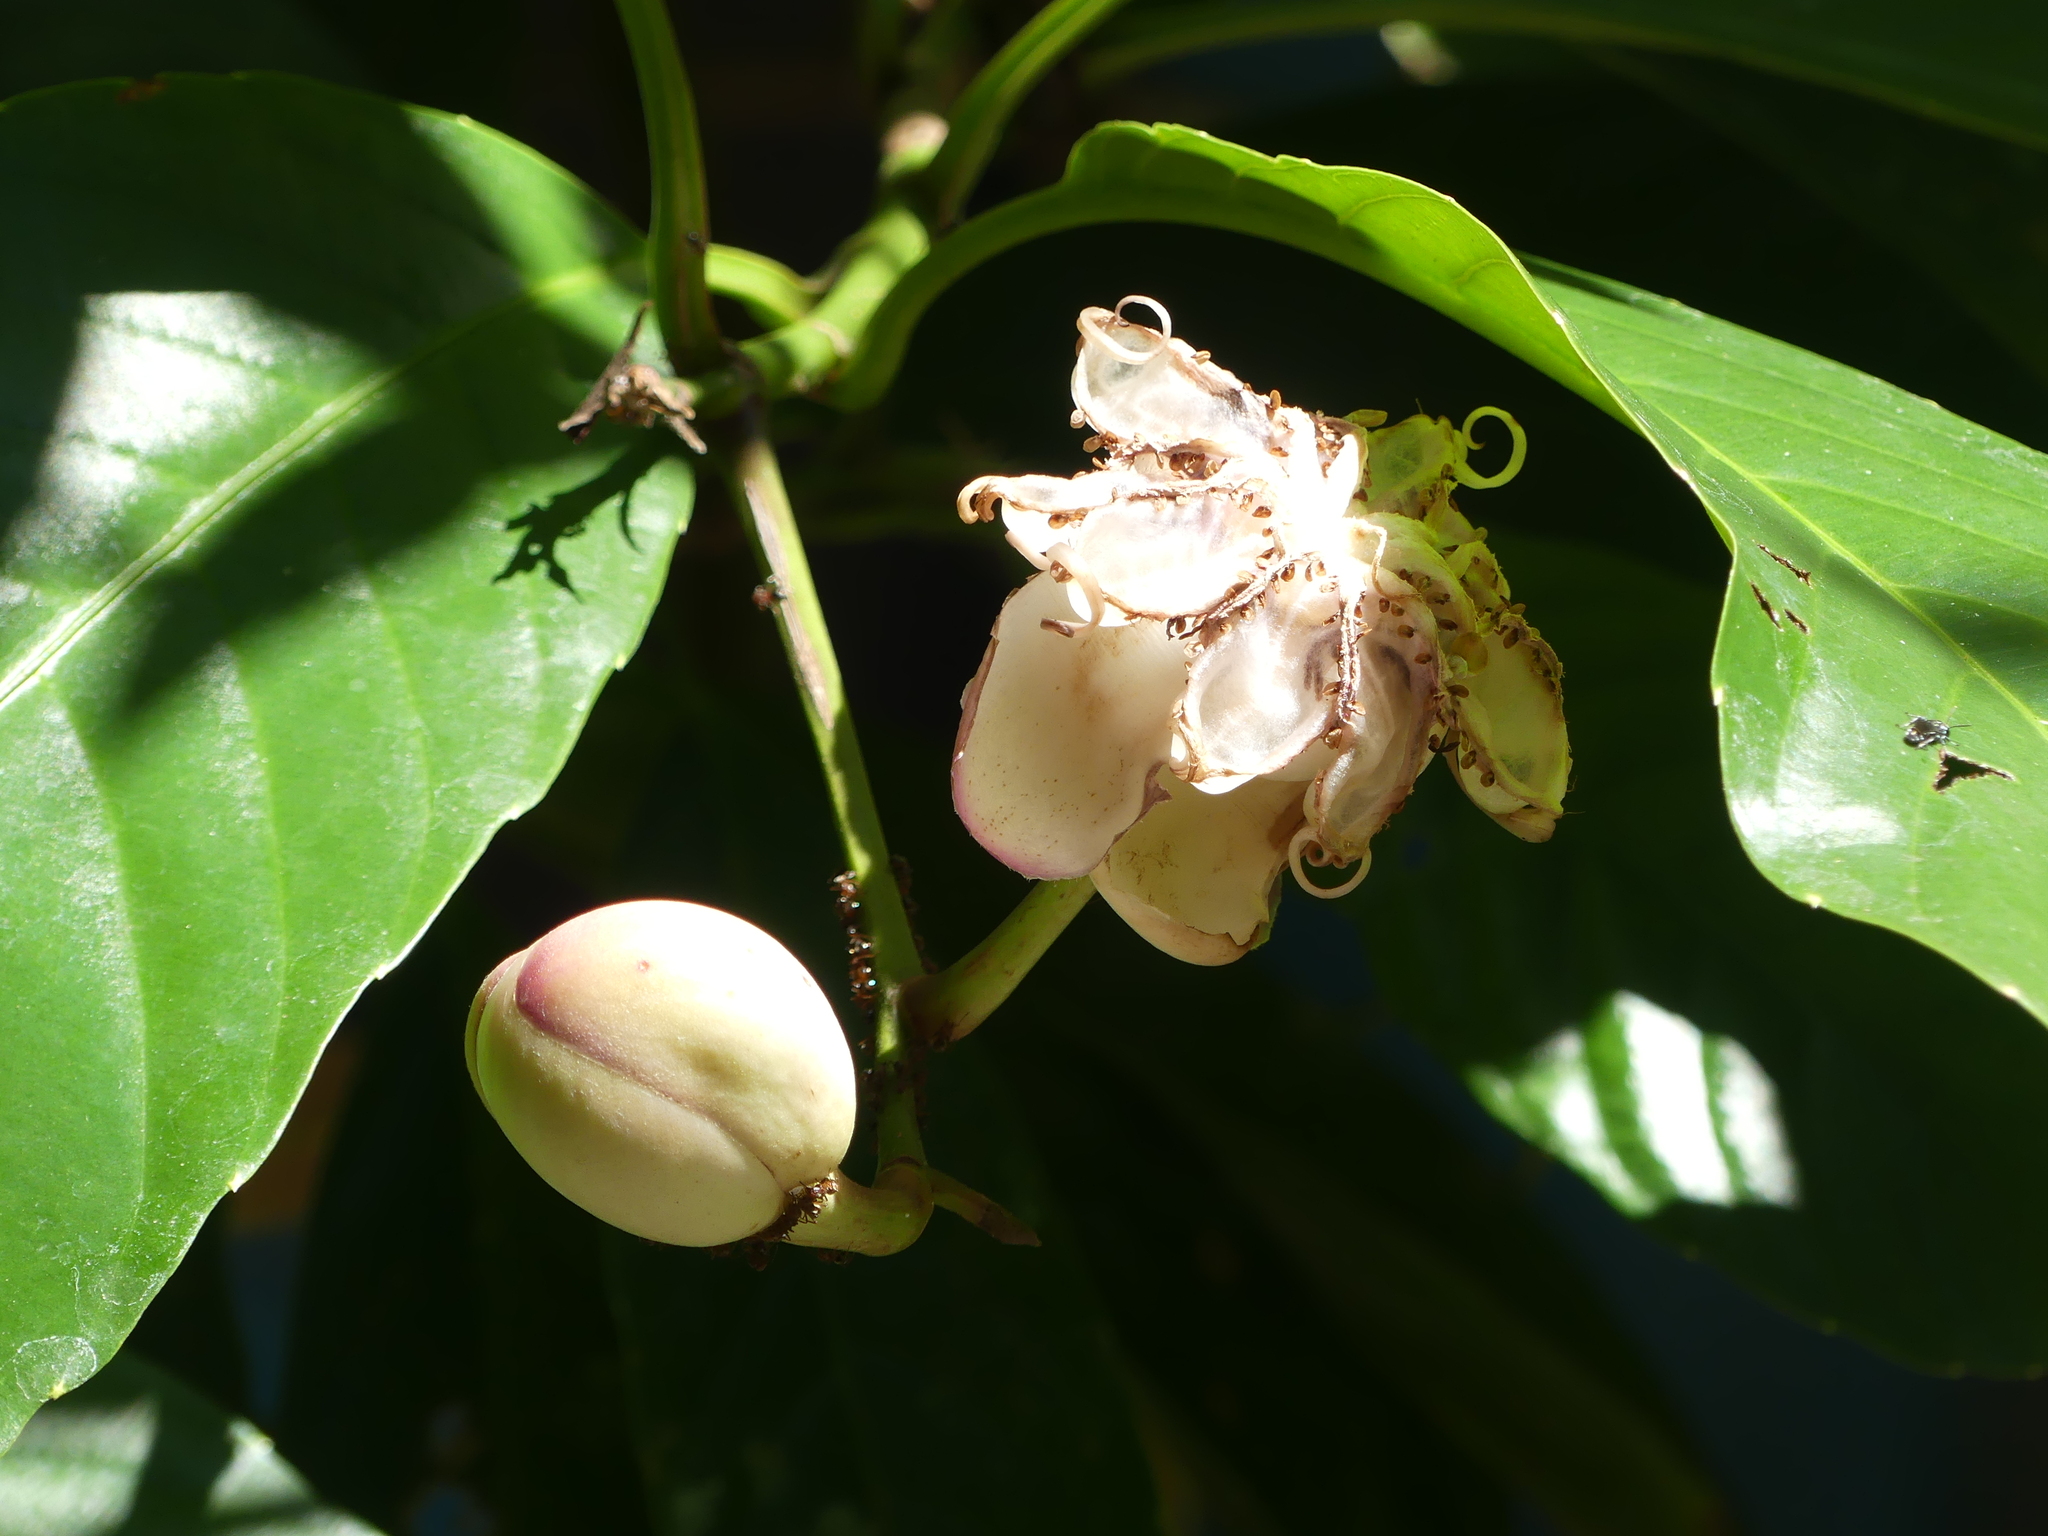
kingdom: Plantae
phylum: Tracheophyta
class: Magnoliopsida
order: Dilleniales
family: Dilleniaceae
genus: Dillenia
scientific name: Dillenia excelsa
